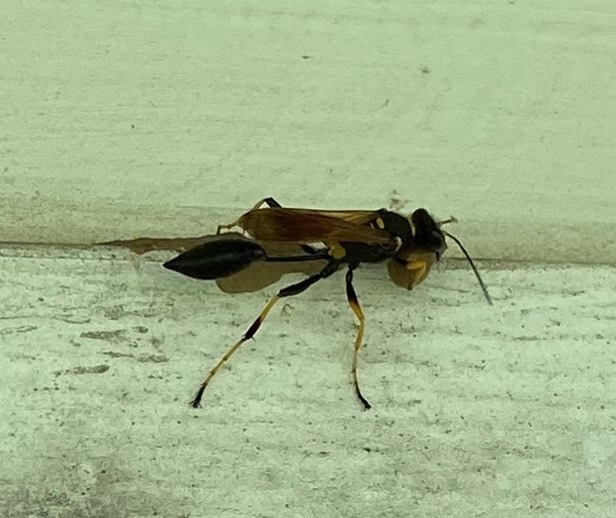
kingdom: Animalia
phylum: Arthropoda
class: Insecta
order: Hymenoptera
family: Sphecidae
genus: Sceliphron
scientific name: Sceliphron caementarium
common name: Mud dauber
